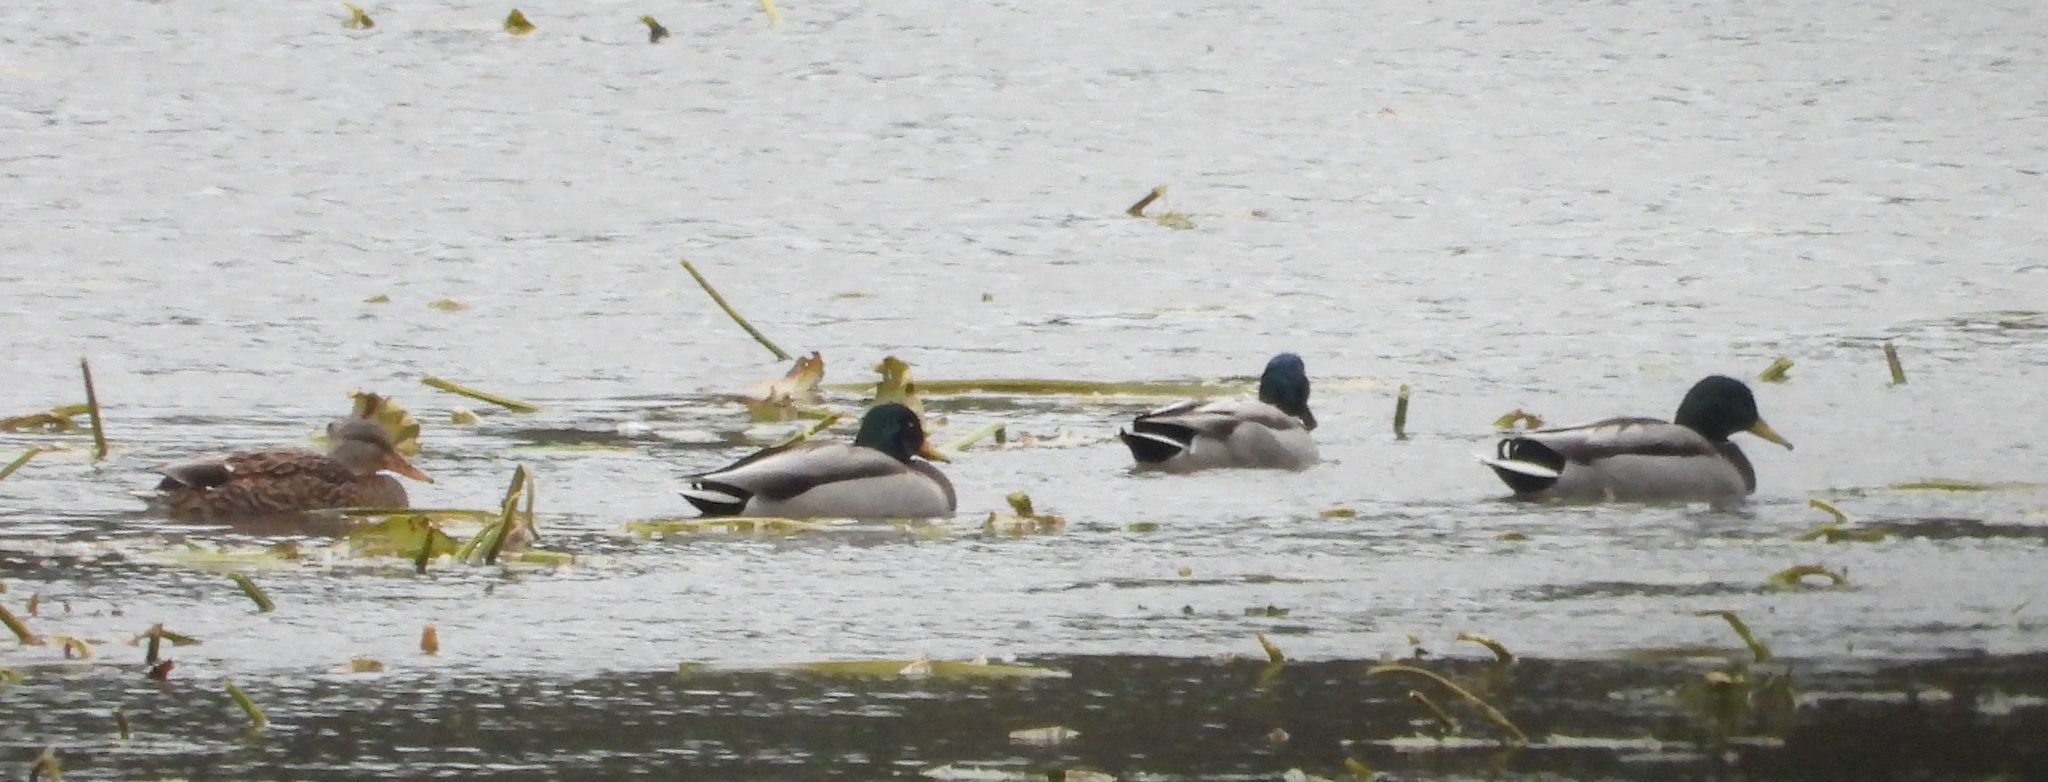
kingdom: Animalia
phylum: Chordata
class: Aves
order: Anseriformes
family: Anatidae
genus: Anas
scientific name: Anas platyrhynchos
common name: Mallard
